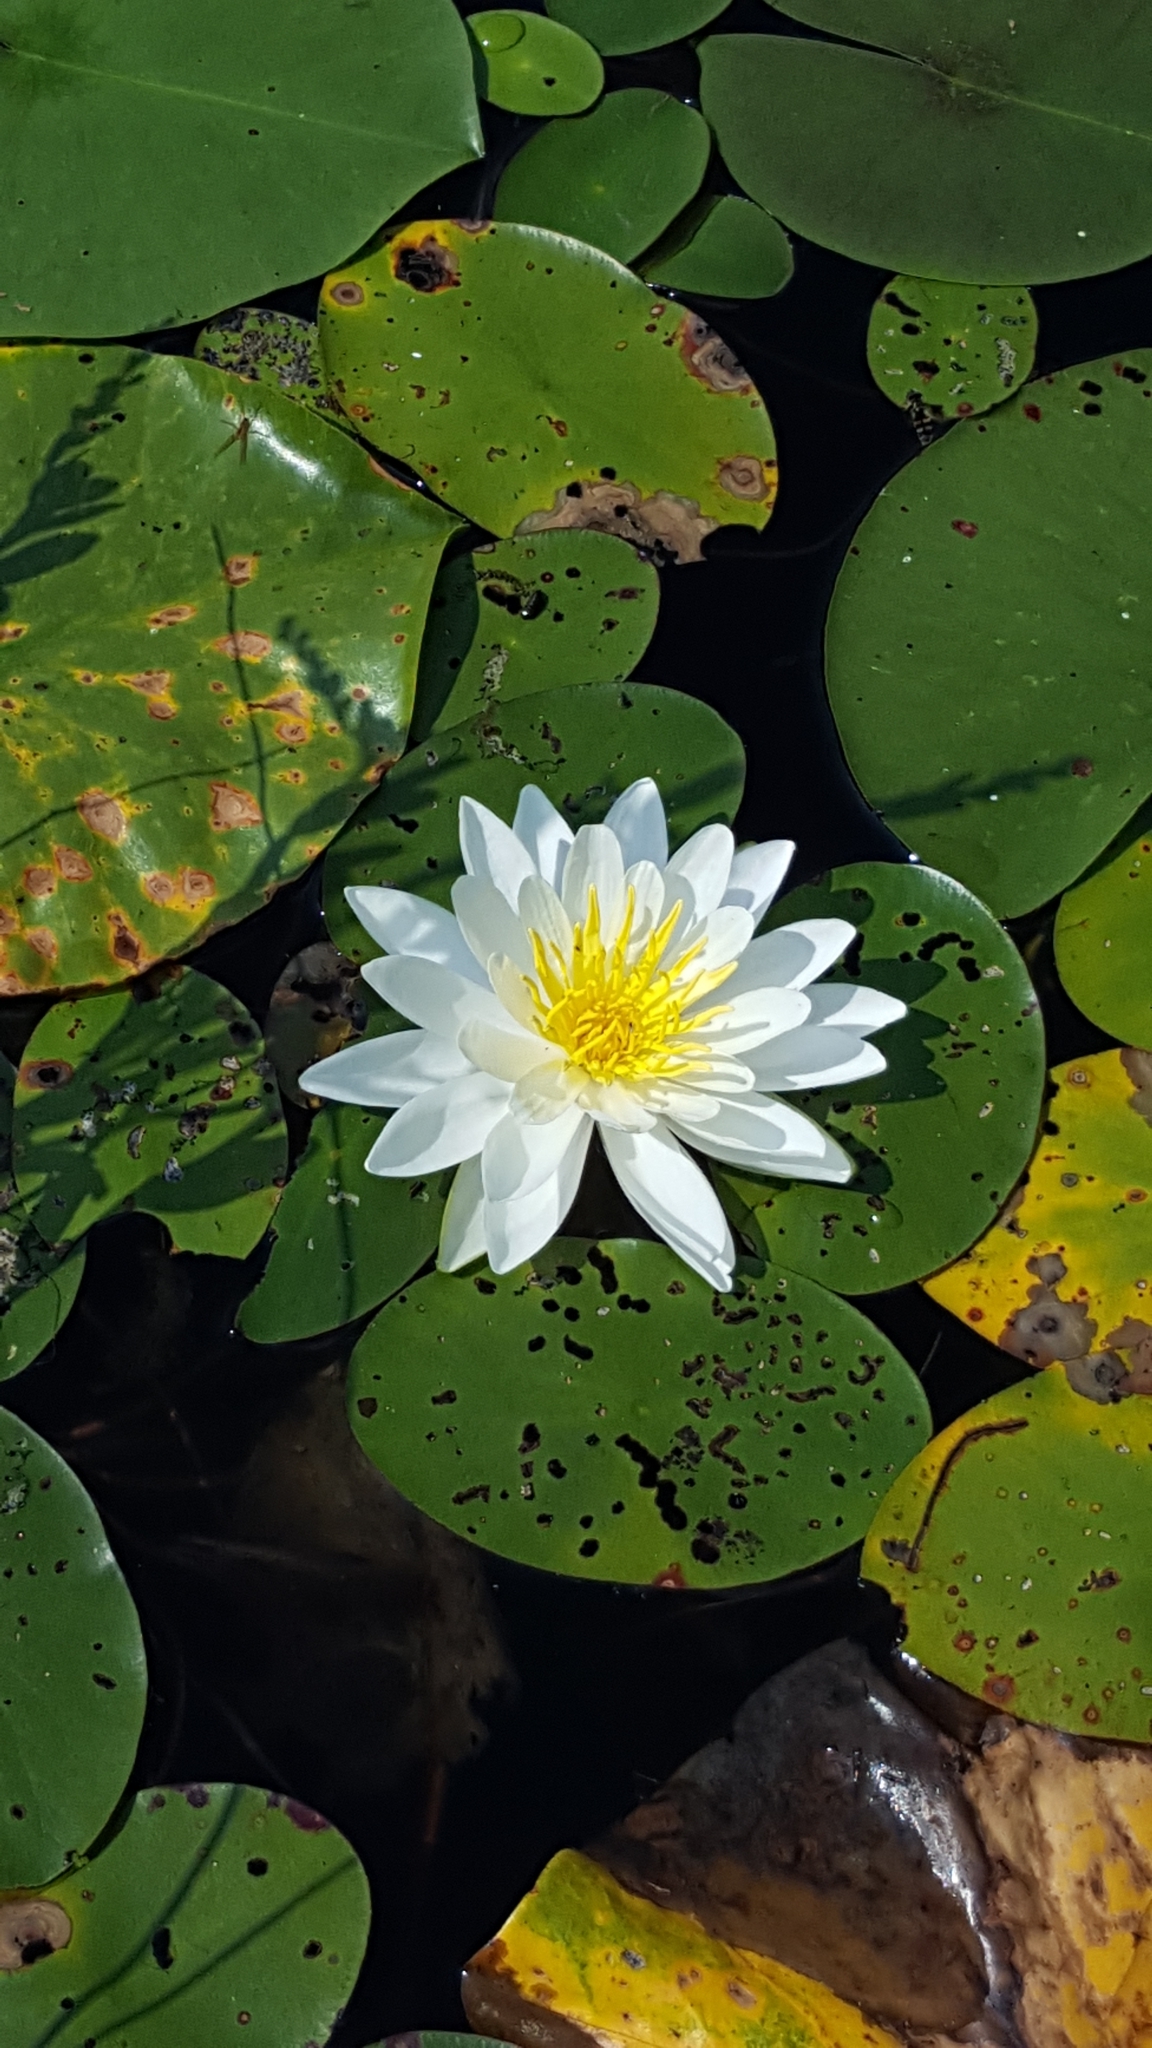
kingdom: Plantae
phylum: Tracheophyta
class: Magnoliopsida
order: Nymphaeales
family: Nymphaeaceae
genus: Nymphaea
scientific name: Nymphaea odorata
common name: Fragrant water-lily
